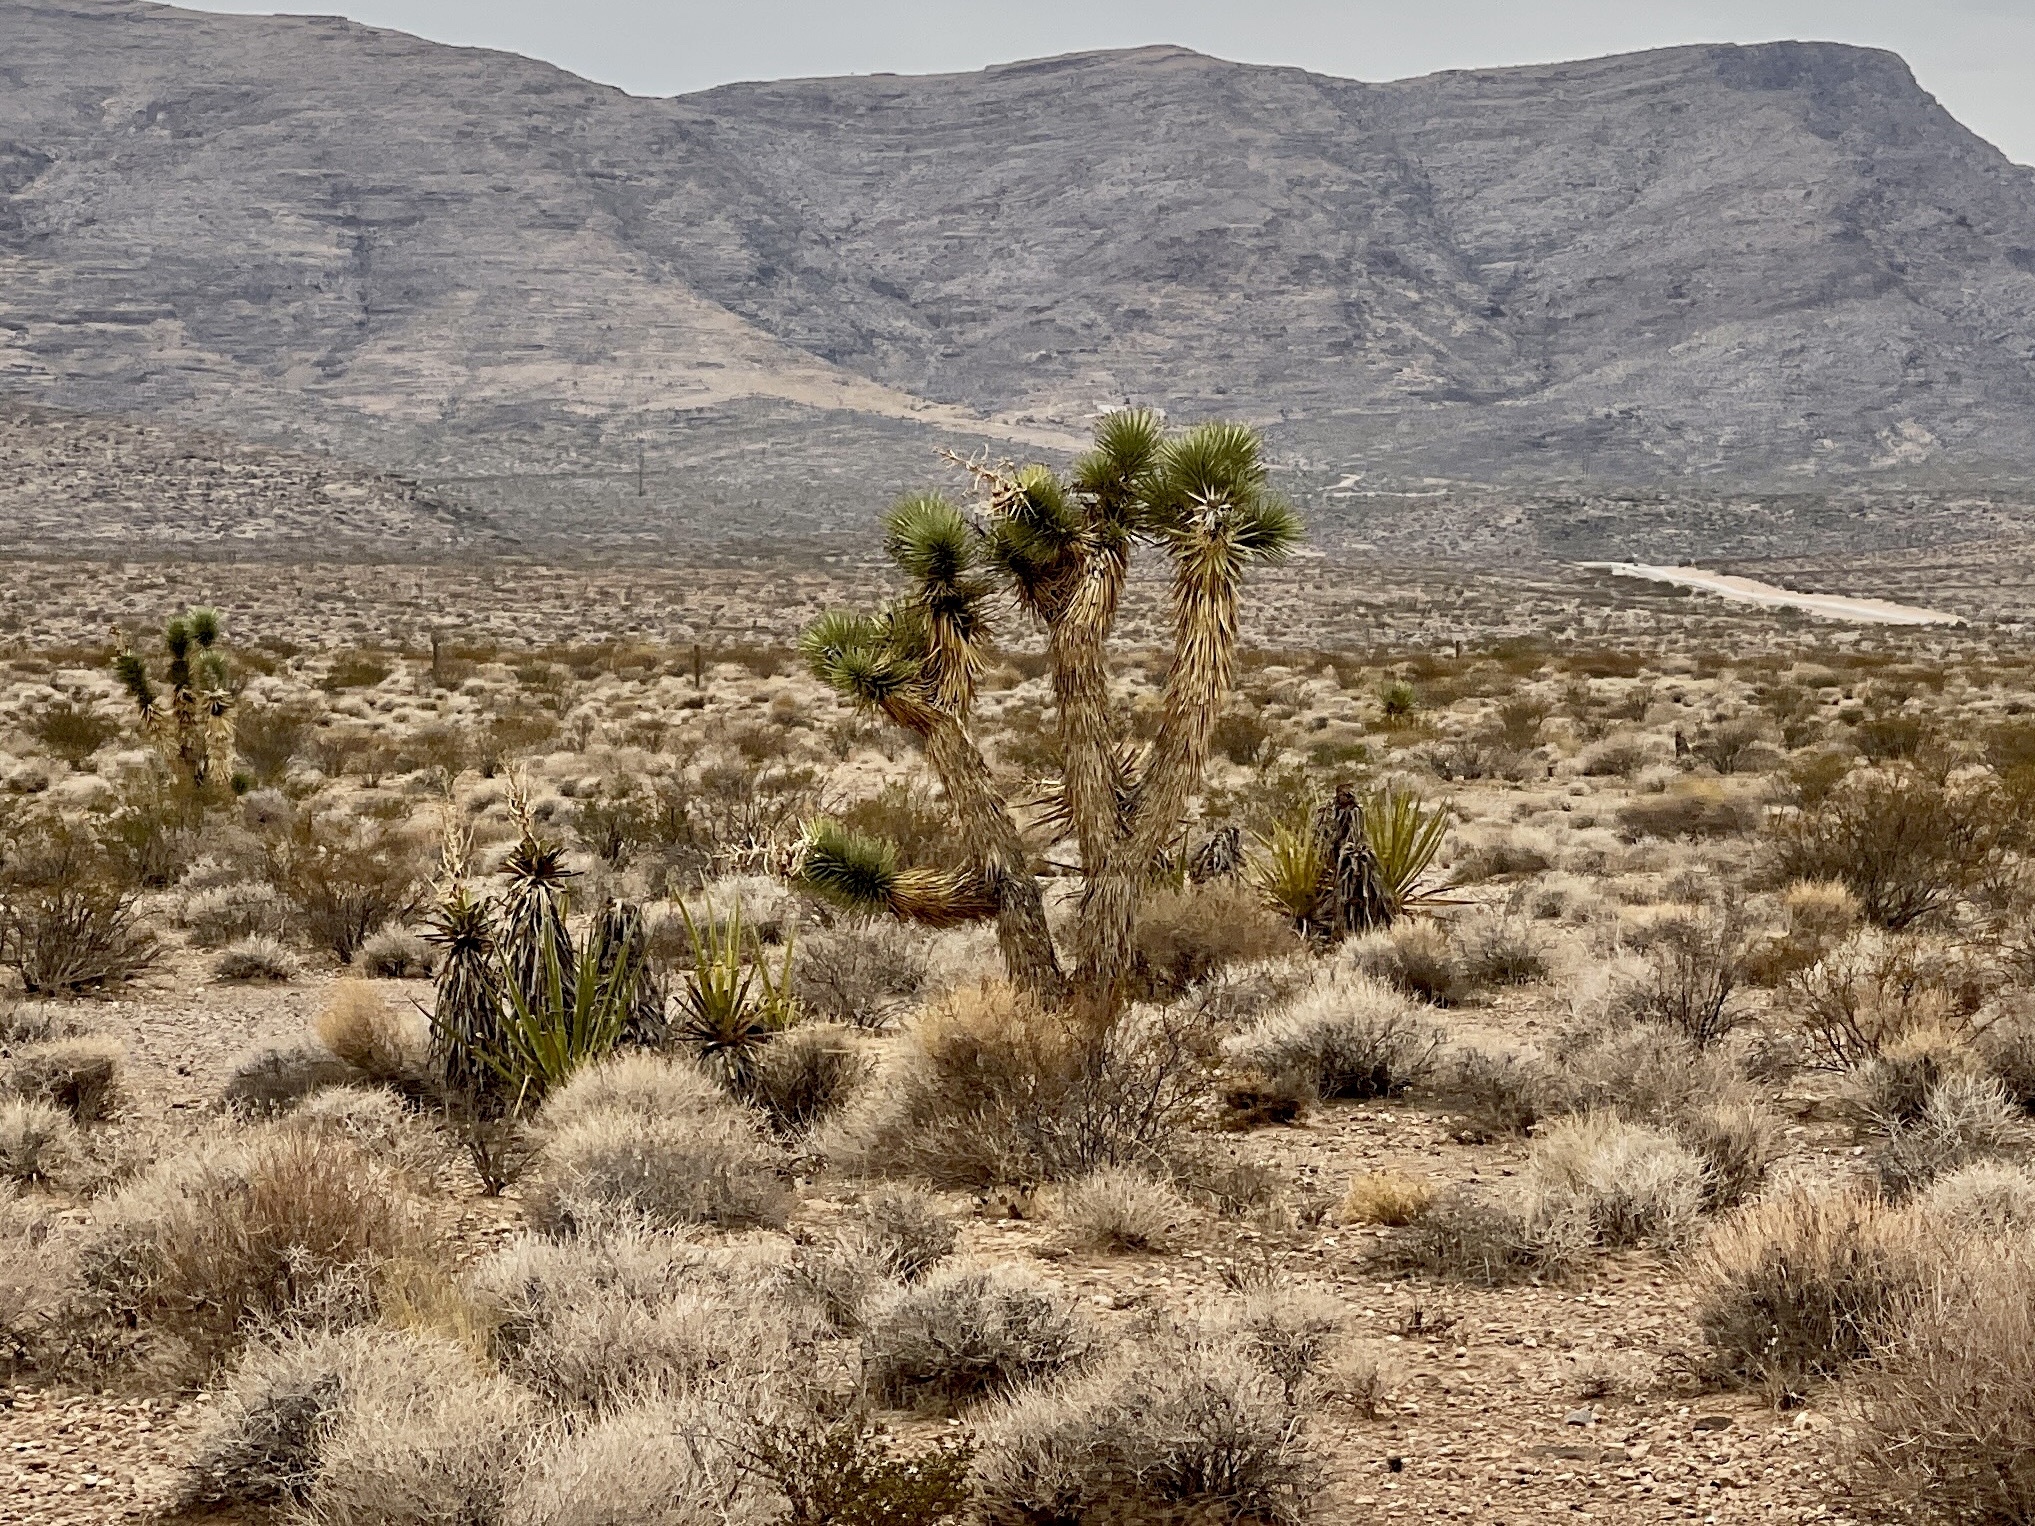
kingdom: Plantae
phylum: Tracheophyta
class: Liliopsida
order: Asparagales
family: Asparagaceae
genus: Yucca
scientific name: Yucca brevifolia
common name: Joshua tree
